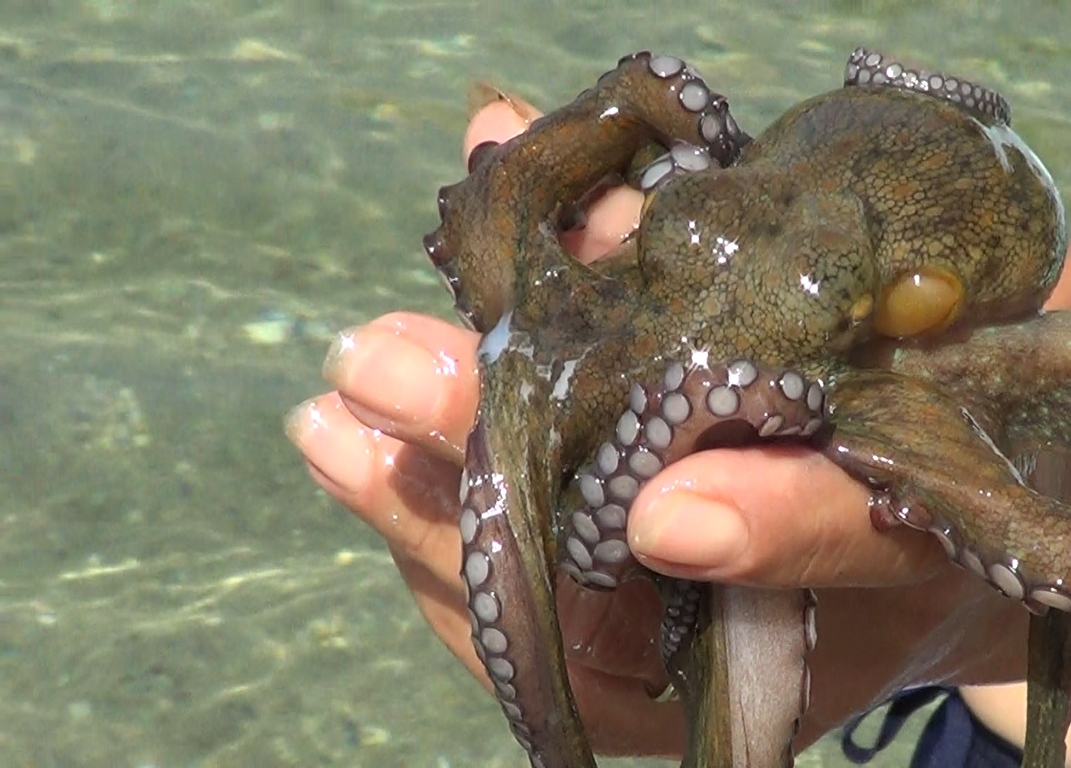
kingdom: Animalia
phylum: Mollusca
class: Cephalopoda
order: Octopoda
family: Octopodidae
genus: Octopus
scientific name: Octopus vulgaris
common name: Common octopus
